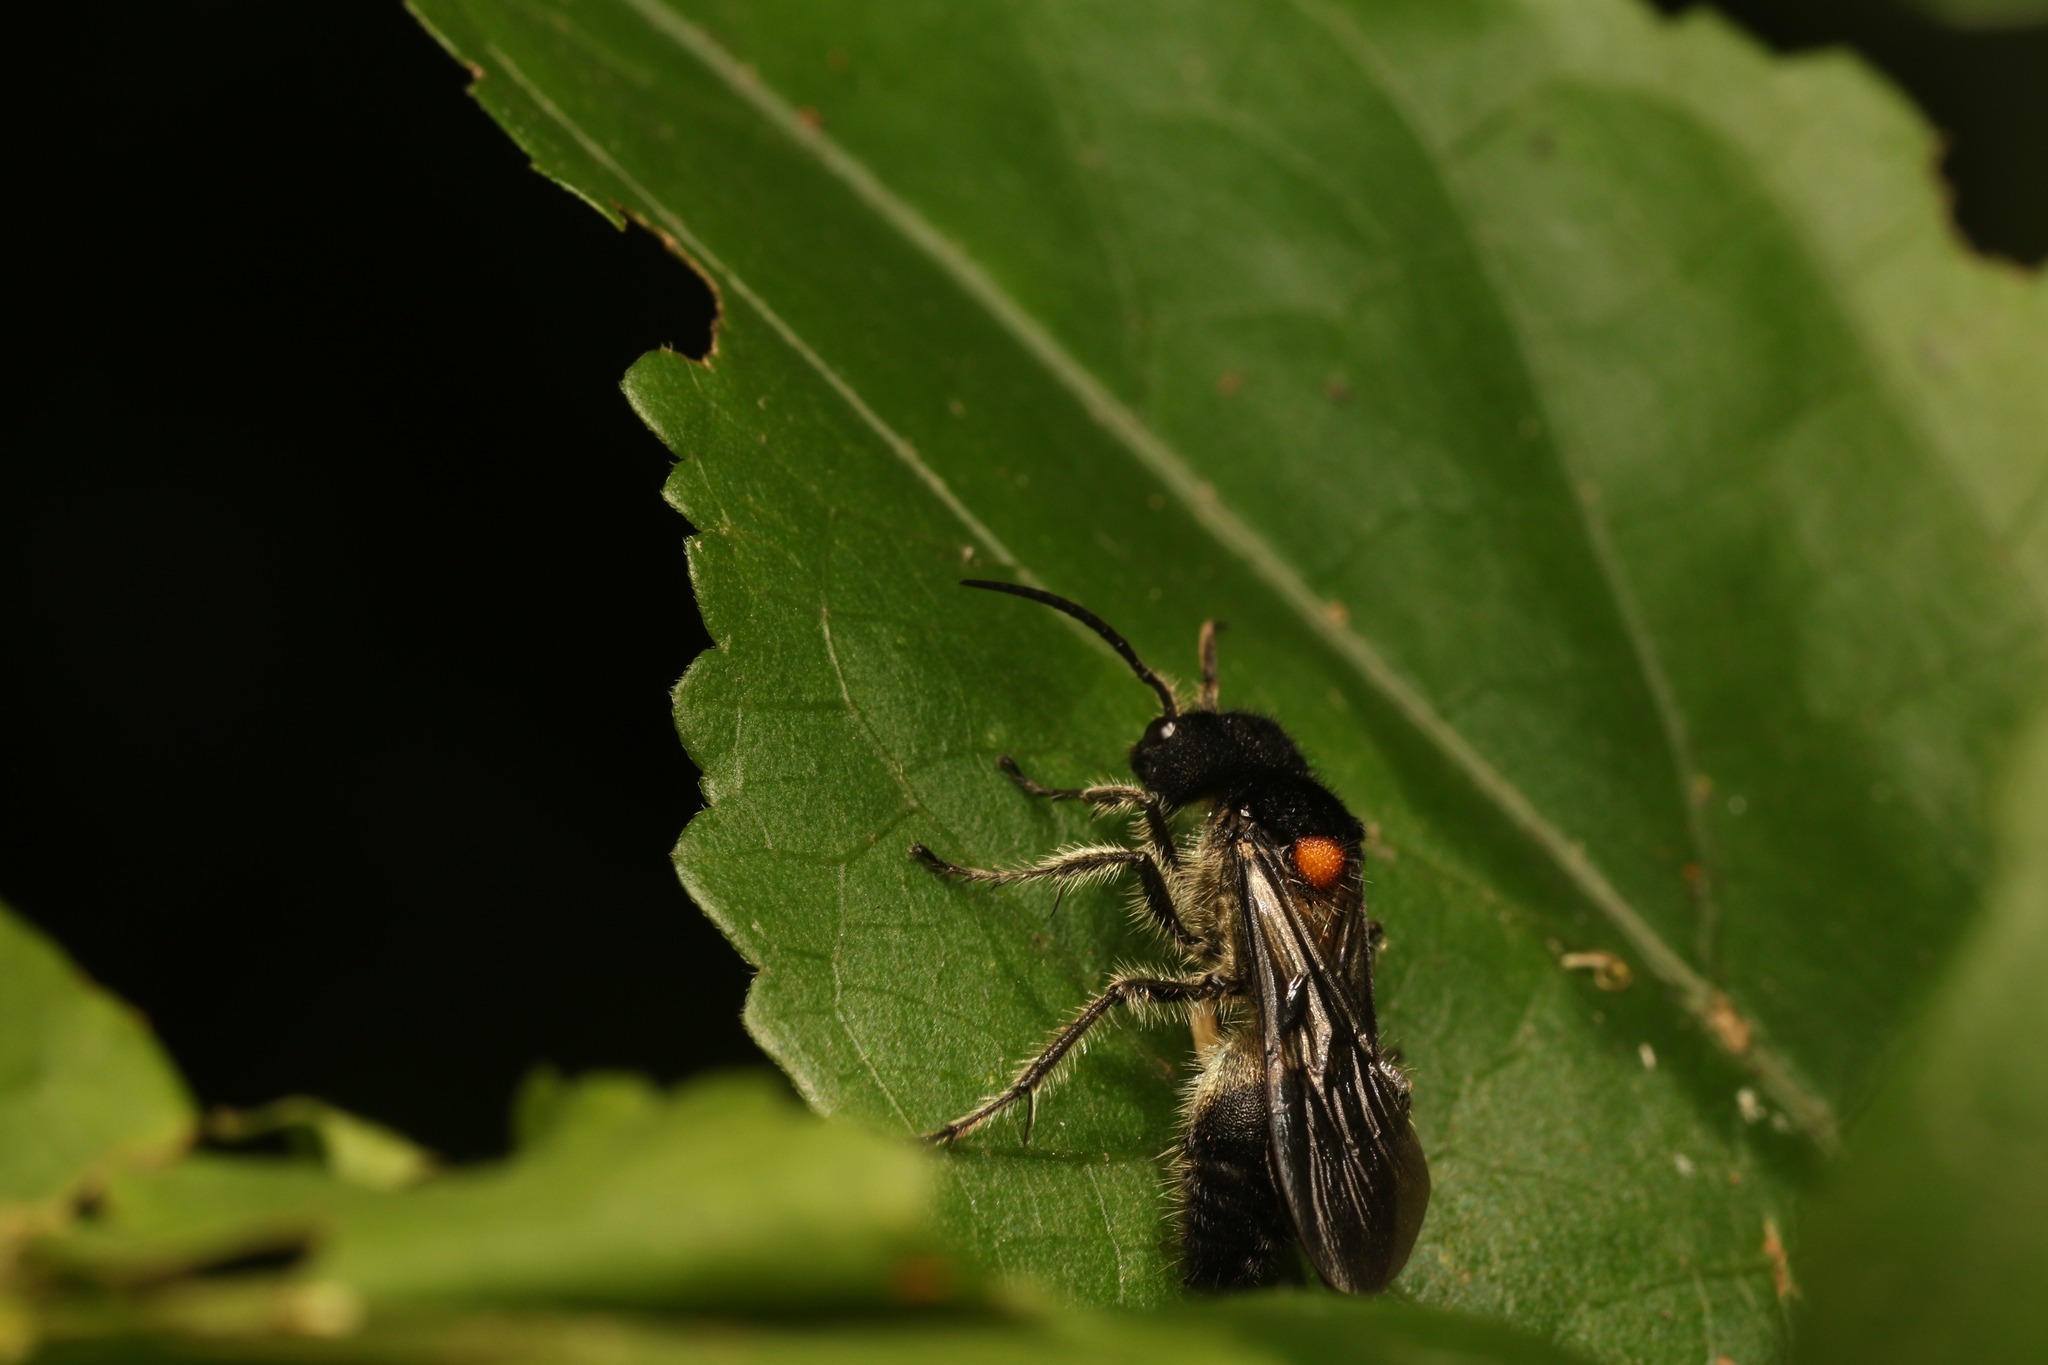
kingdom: Animalia
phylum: Arthropoda
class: Insecta
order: Hymenoptera
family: Mutillidae
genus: Hoplocrates
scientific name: Hoplocrates
